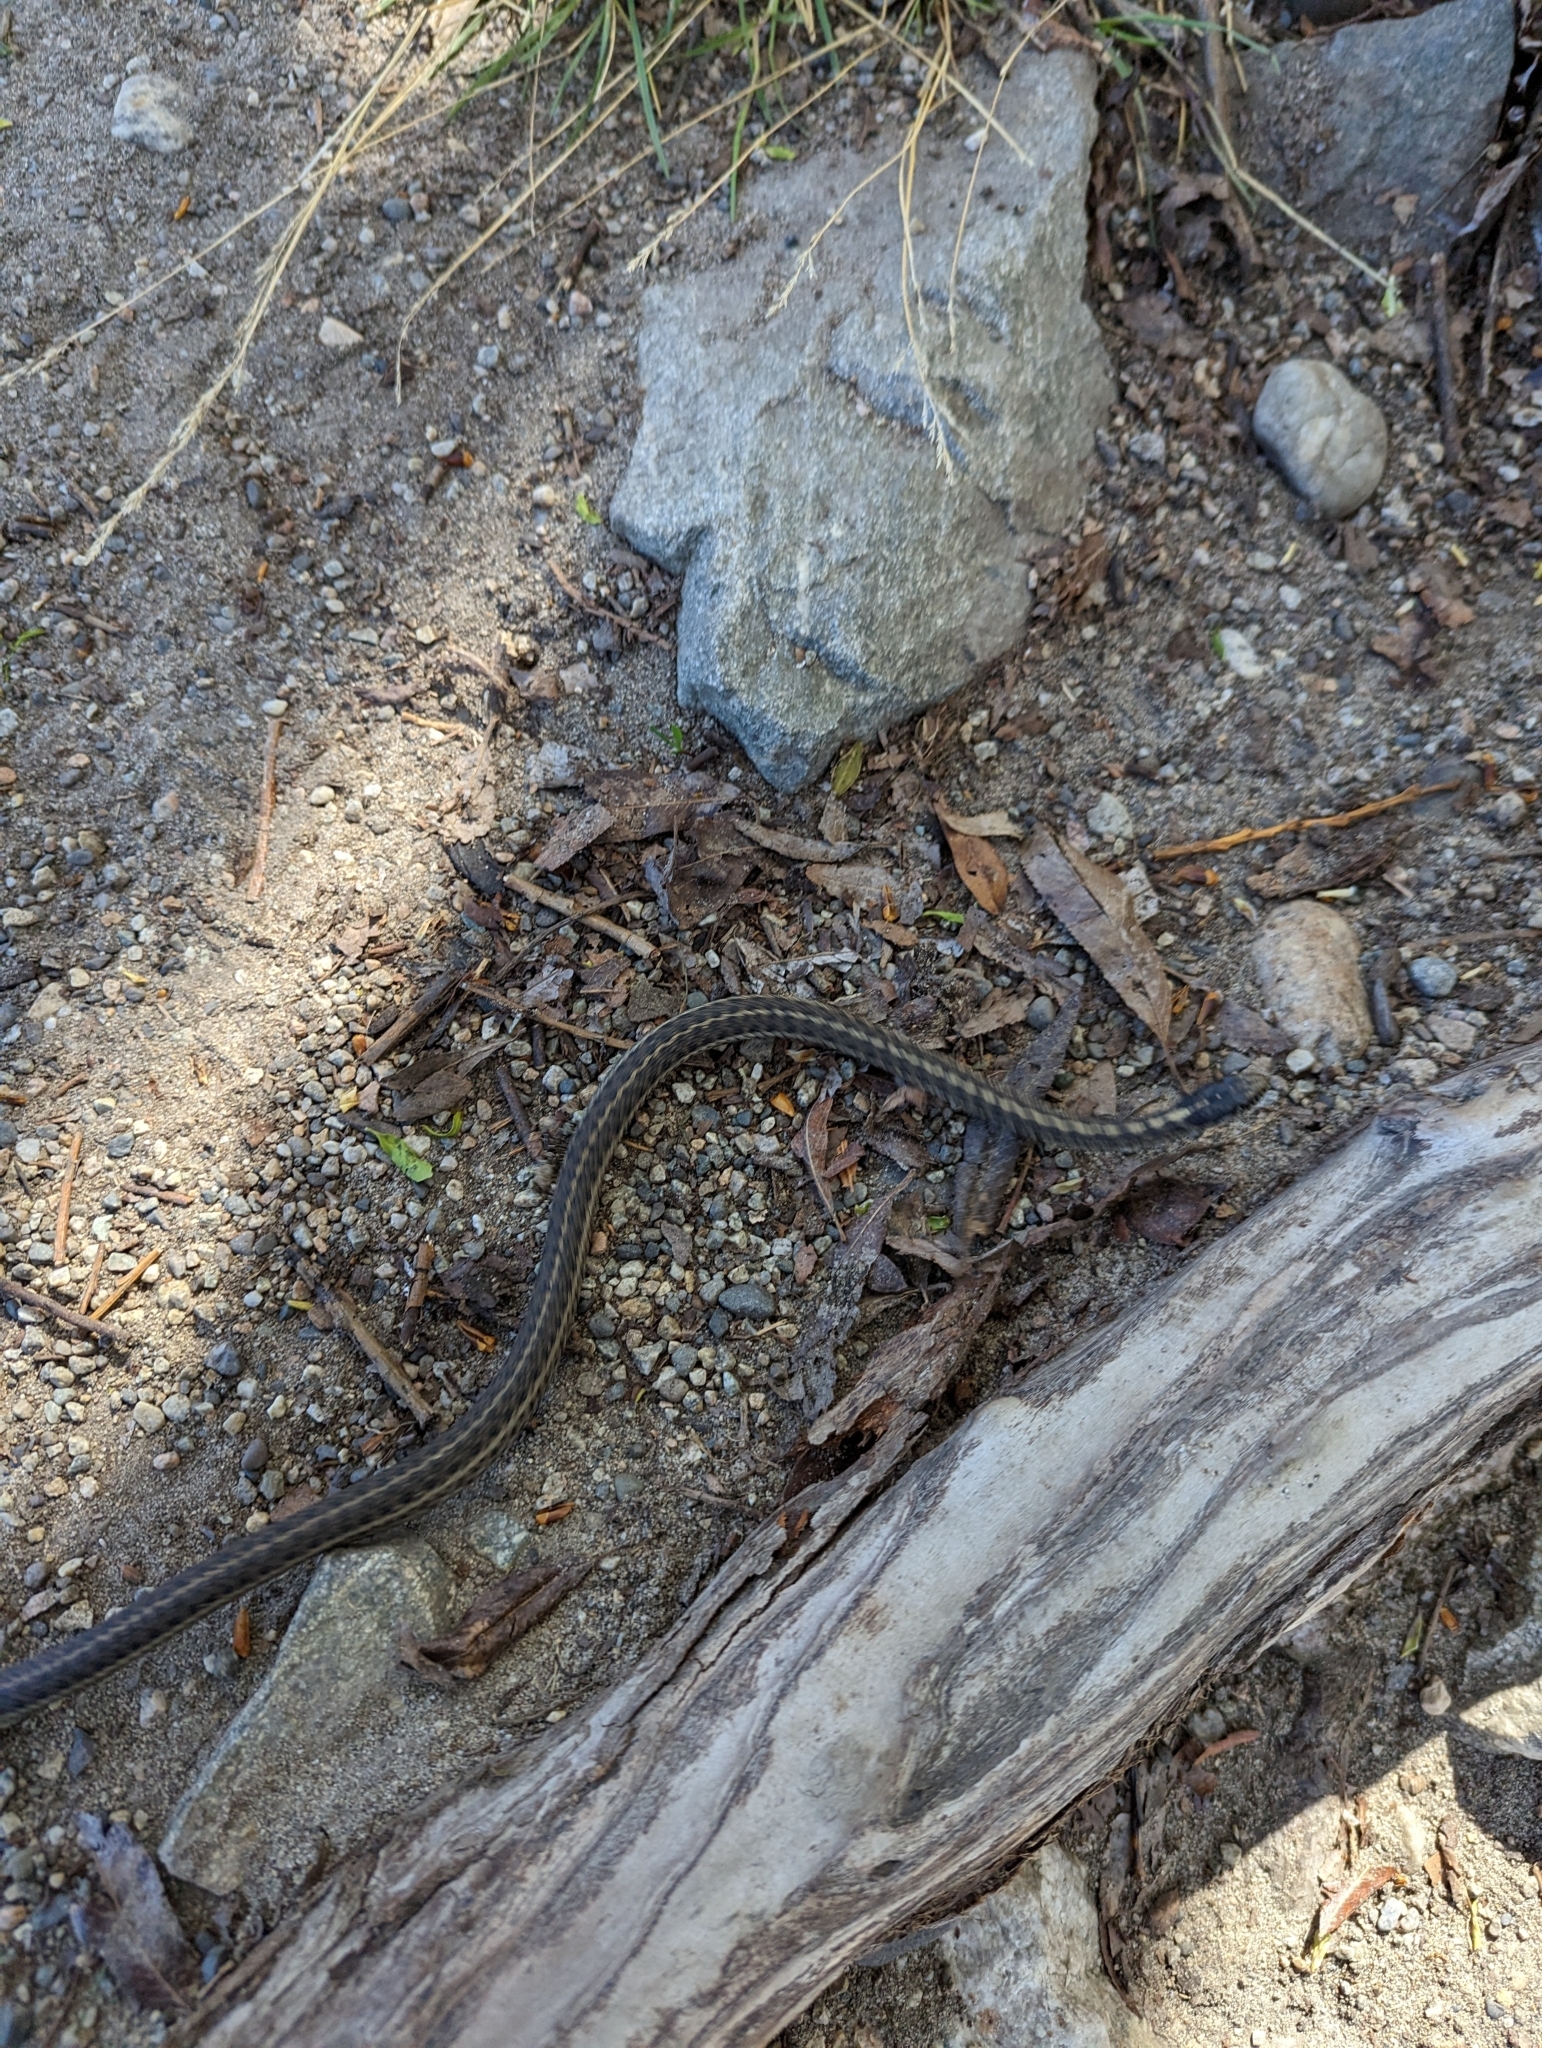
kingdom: Animalia
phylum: Chordata
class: Squamata
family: Colubridae
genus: Thamnophis
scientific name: Thamnophis elegans
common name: Western terrestrial garter snake
